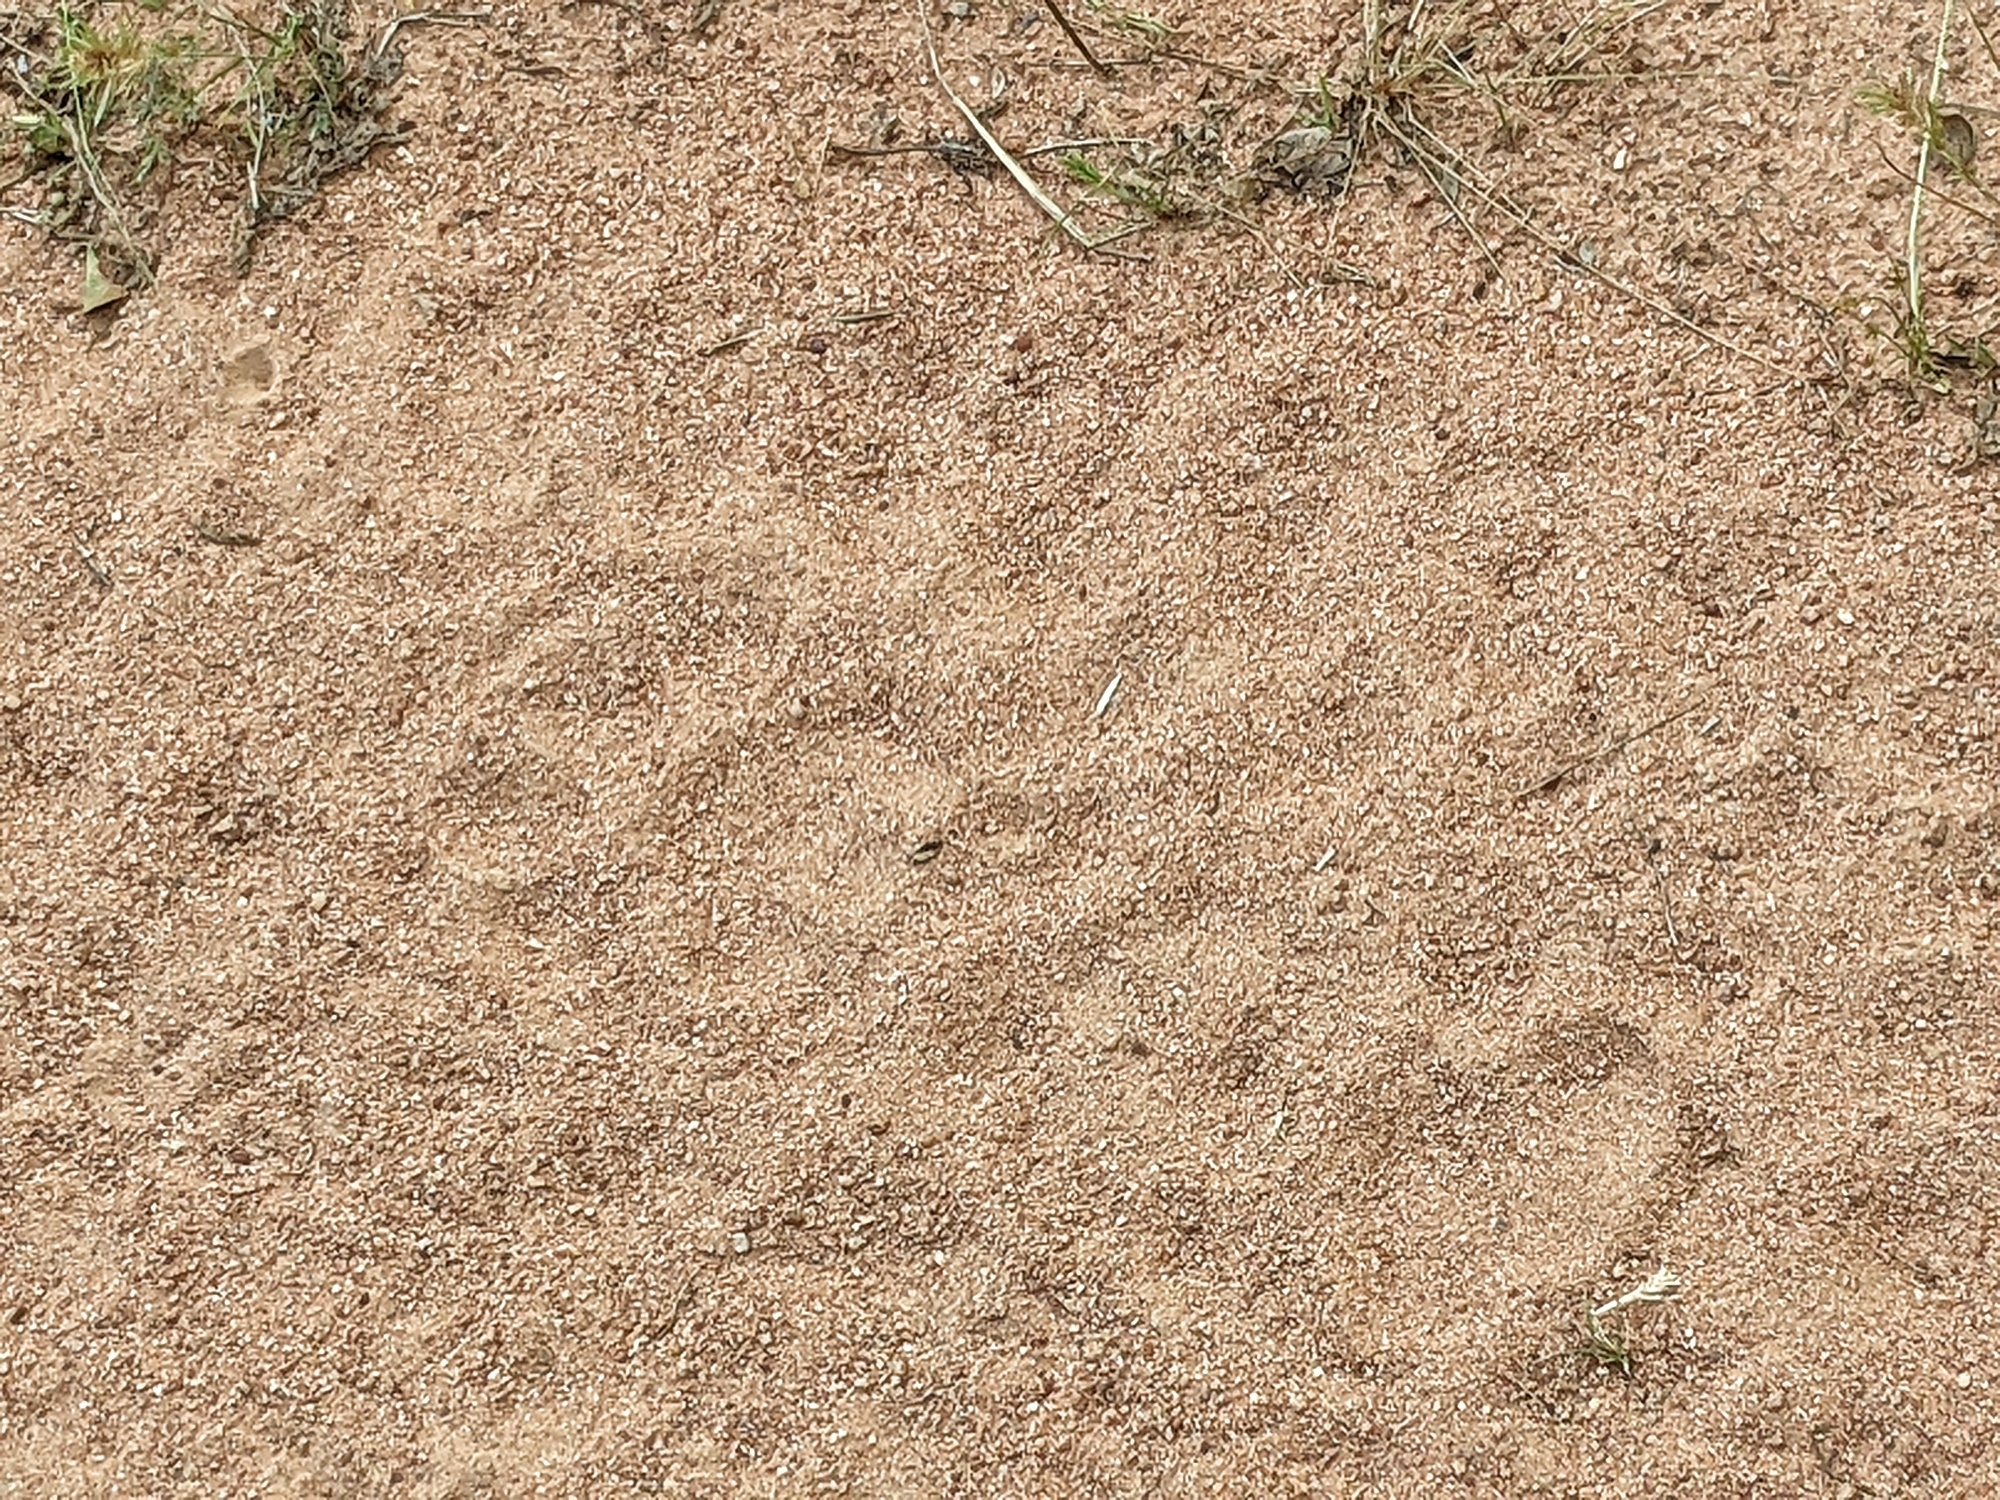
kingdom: Animalia
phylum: Chordata
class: Mammalia
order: Carnivora
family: Felidae
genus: Panthera
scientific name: Panthera leo
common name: Lion
